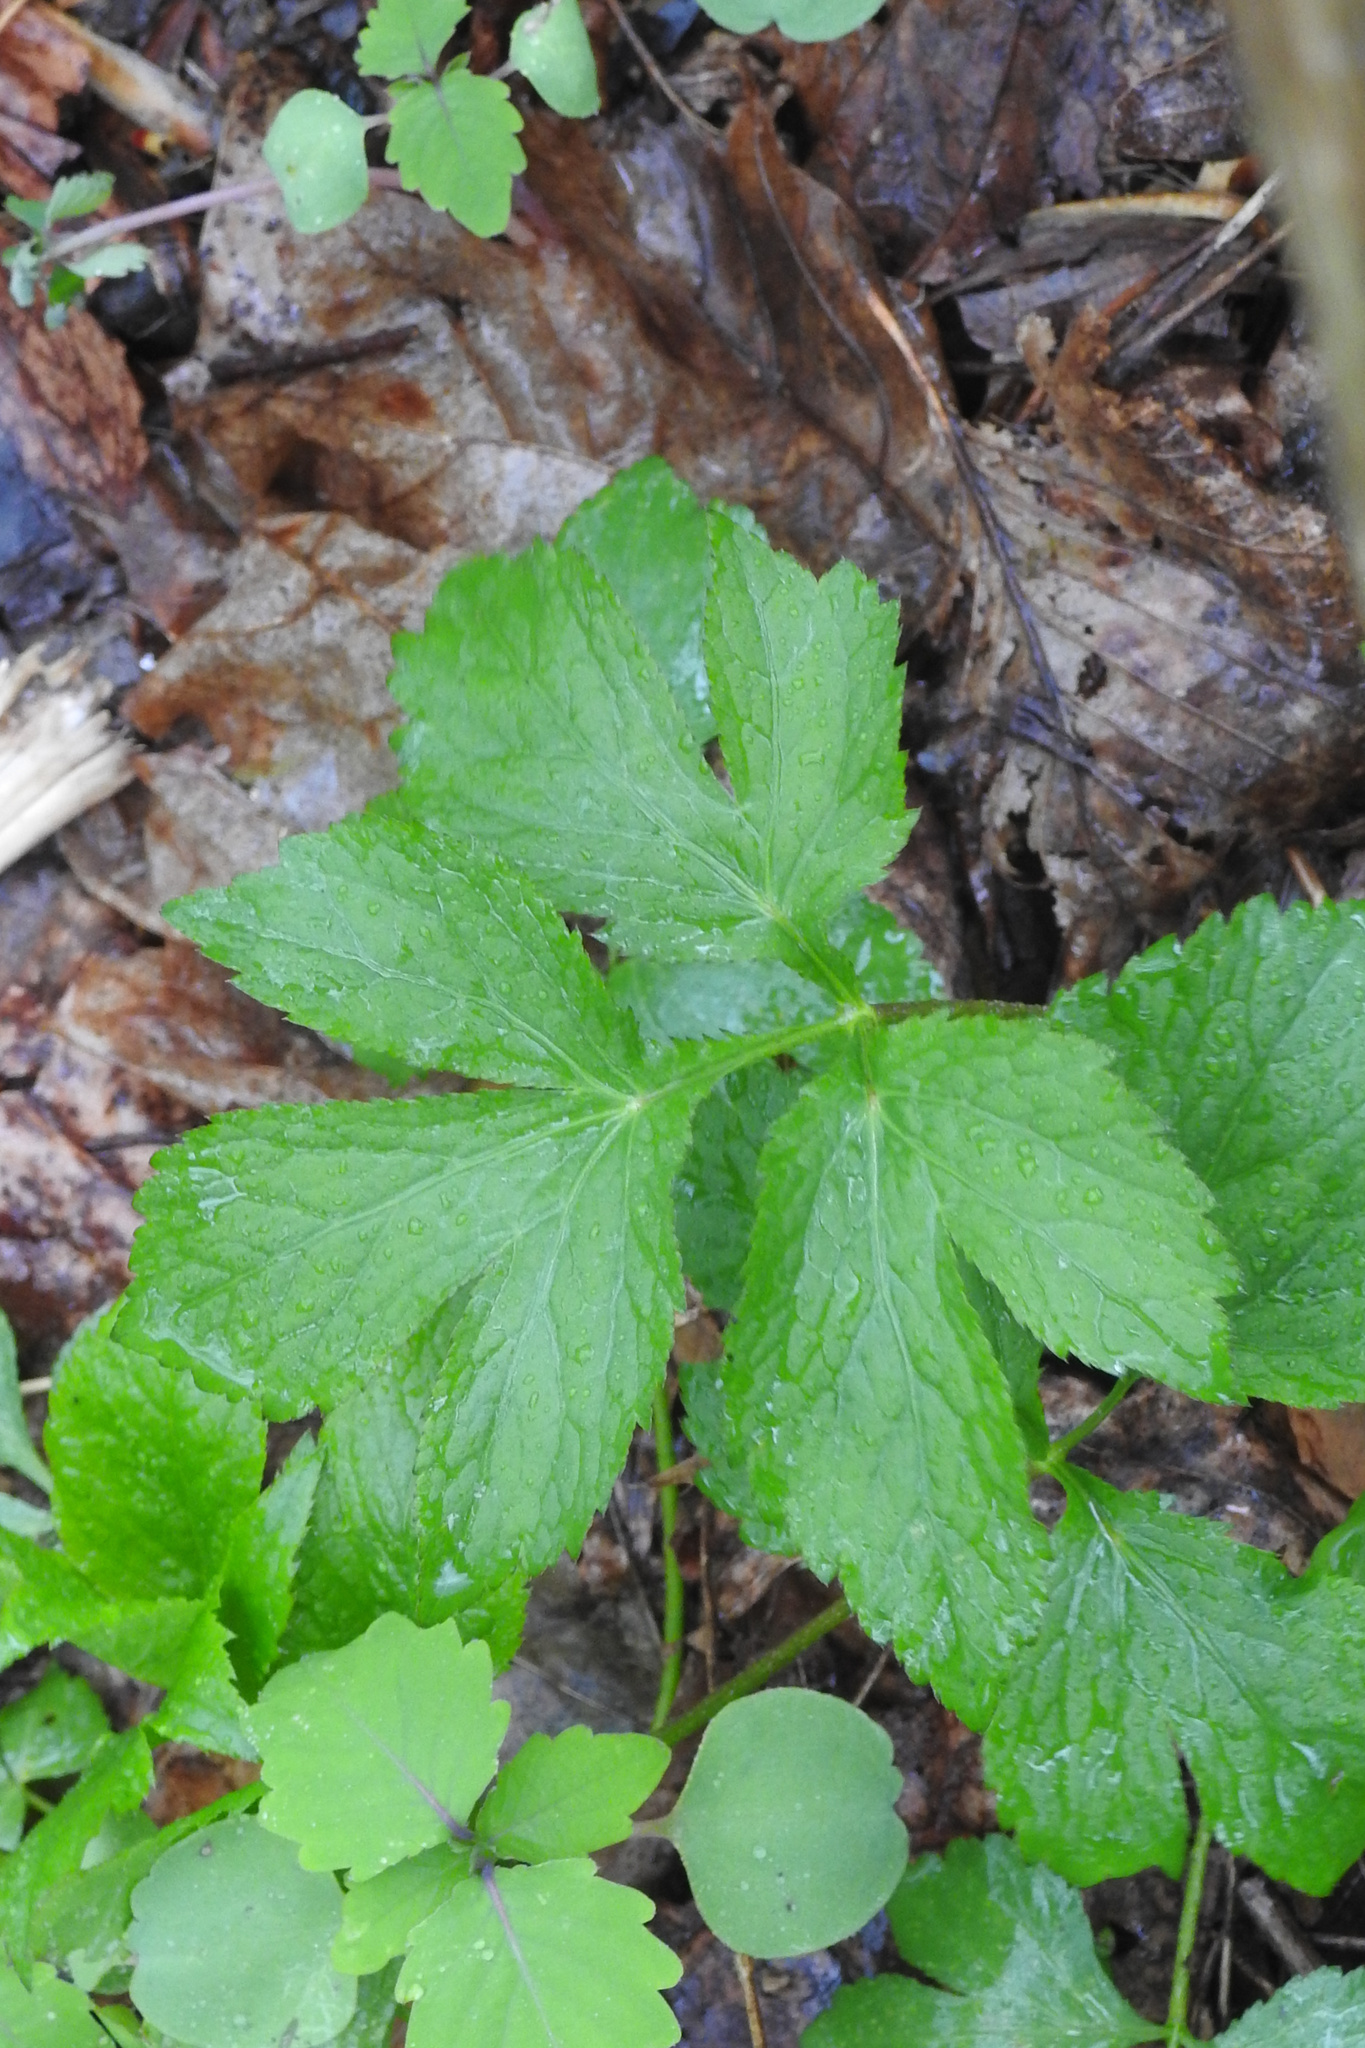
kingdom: Plantae
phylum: Tracheophyta
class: Magnoliopsida
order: Apiales
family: Apiaceae
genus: Aegopodium
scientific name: Aegopodium podagraria
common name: Ground-elder
